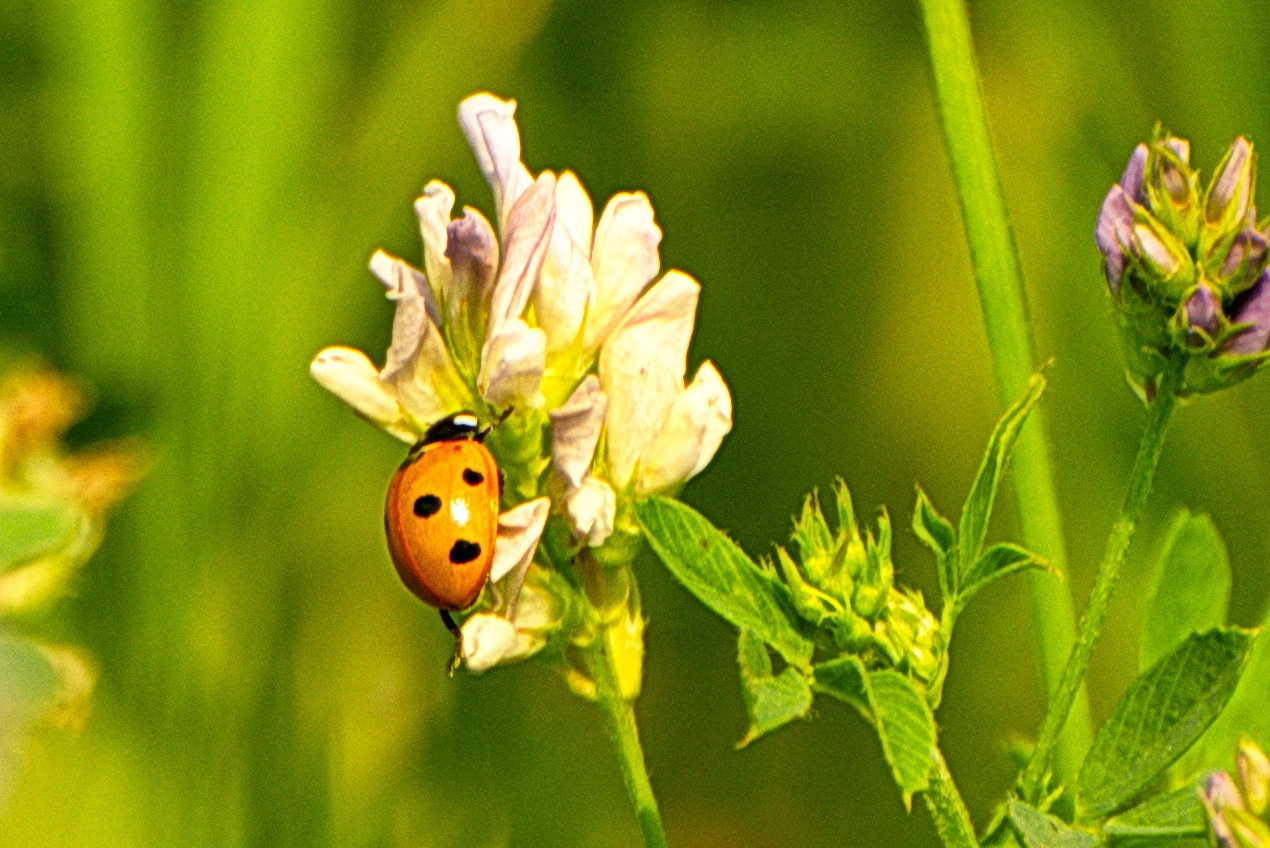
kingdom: Animalia
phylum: Arthropoda
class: Insecta
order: Coleoptera
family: Coccinellidae
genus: Coccinella
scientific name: Coccinella septempunctata
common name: Sevenspotted lady beetle
